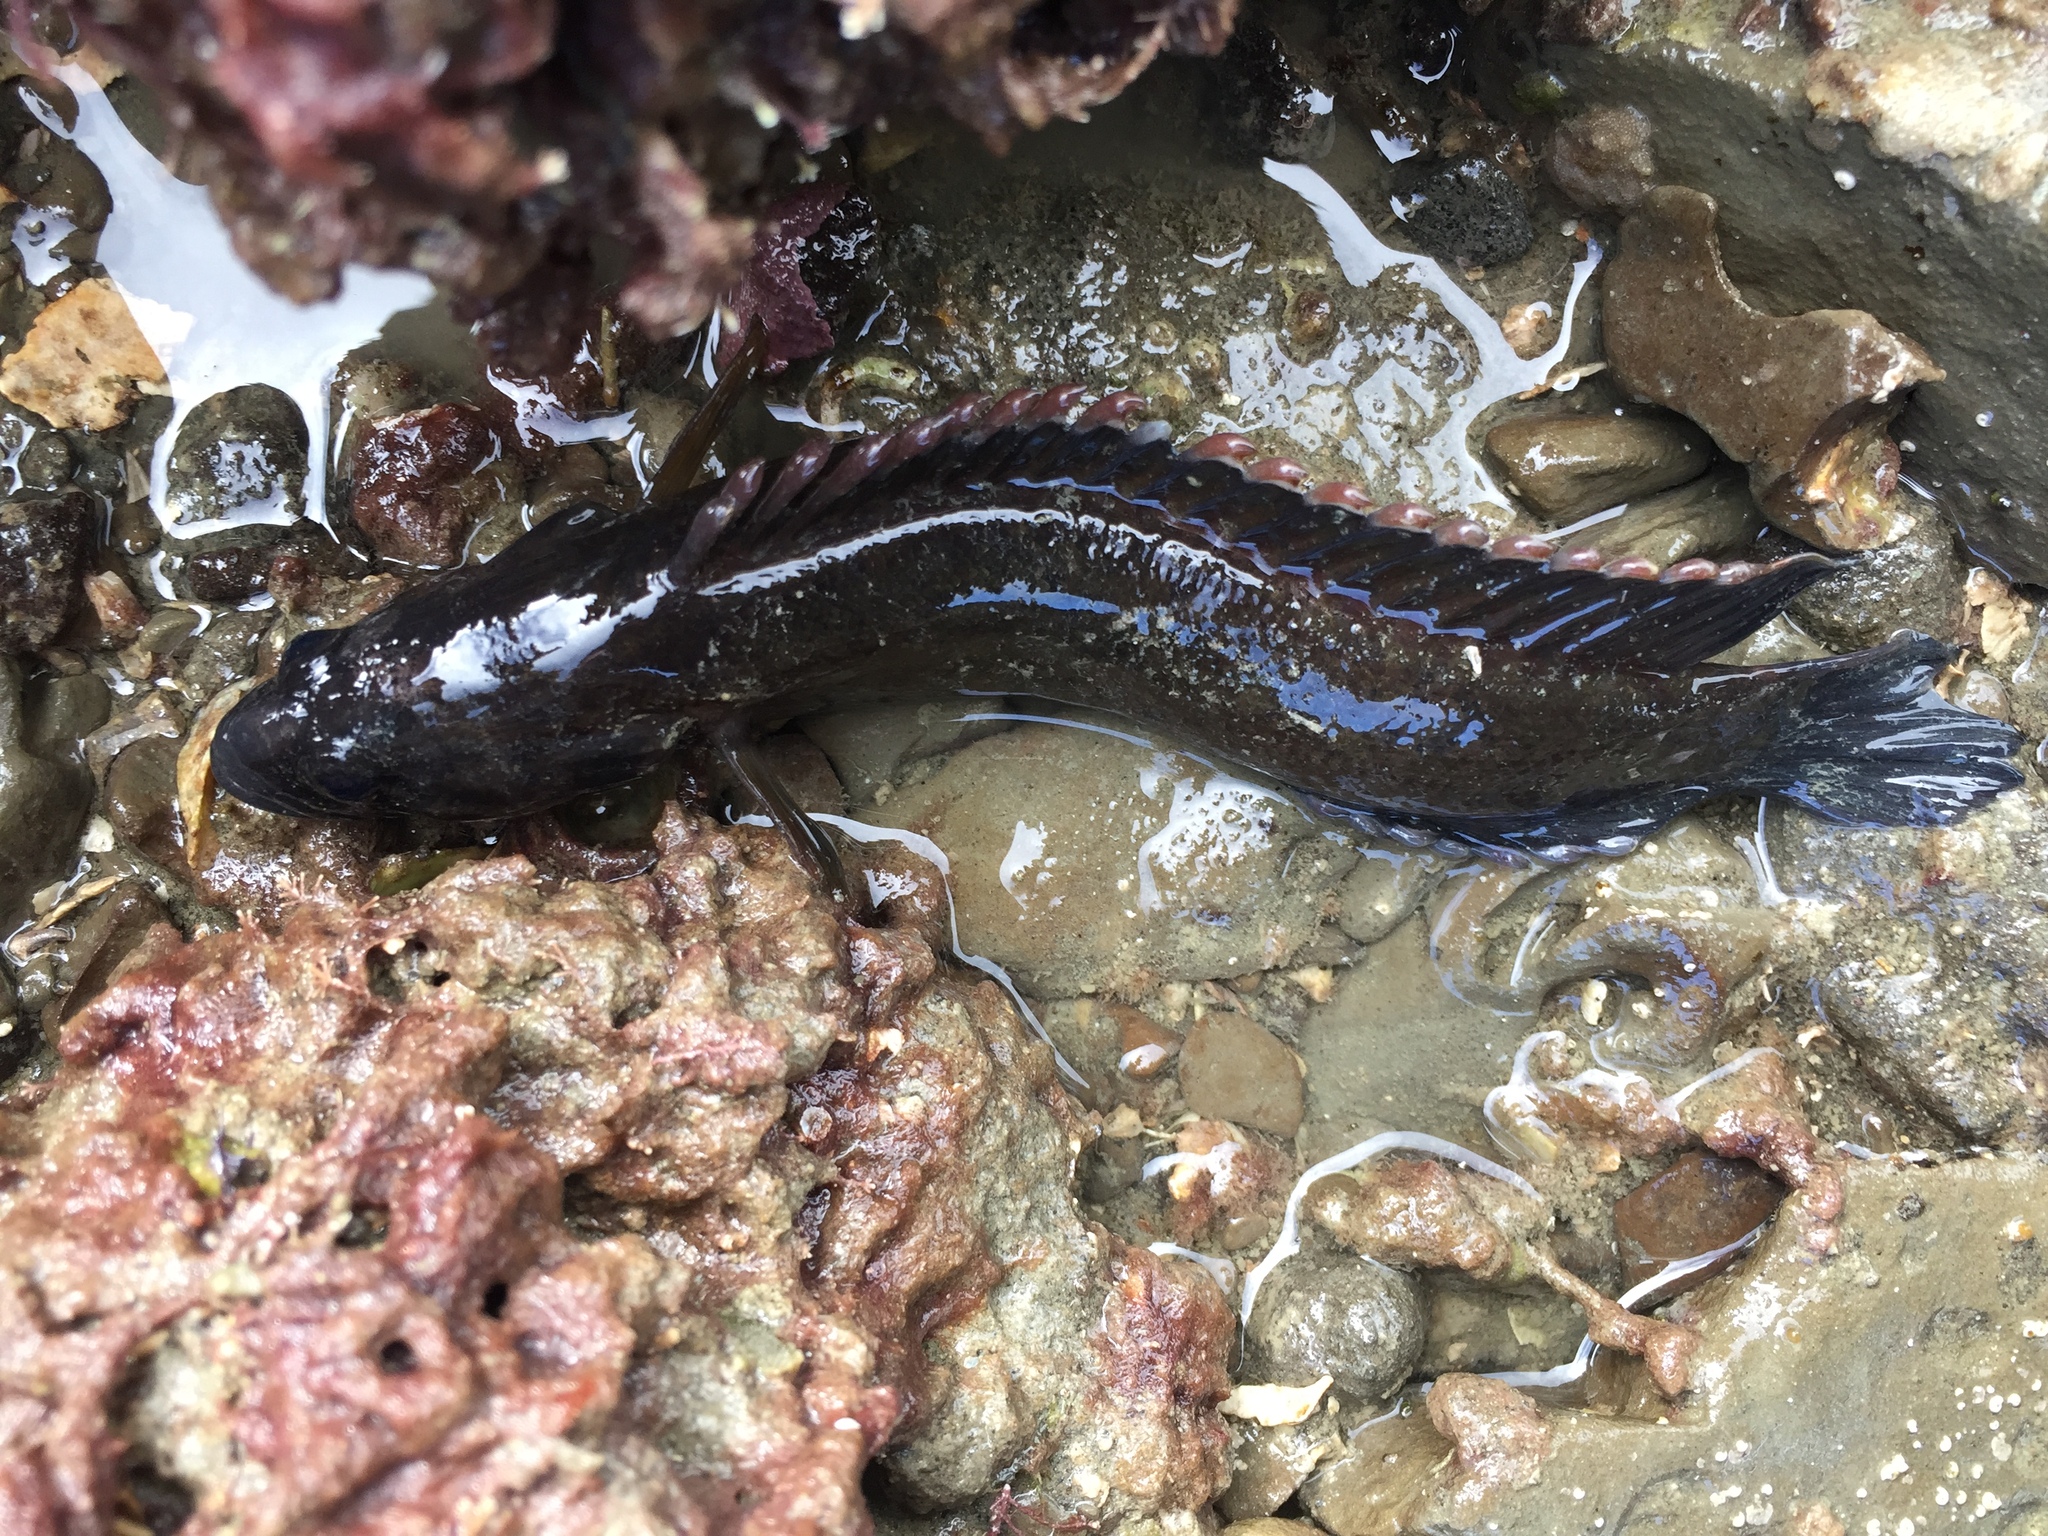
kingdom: Animalia
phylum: Chordata
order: Perciformes
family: Plesiopidae
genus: Acanthoclinus
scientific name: Acanthoclinus fuscus
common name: Olive rockfish
